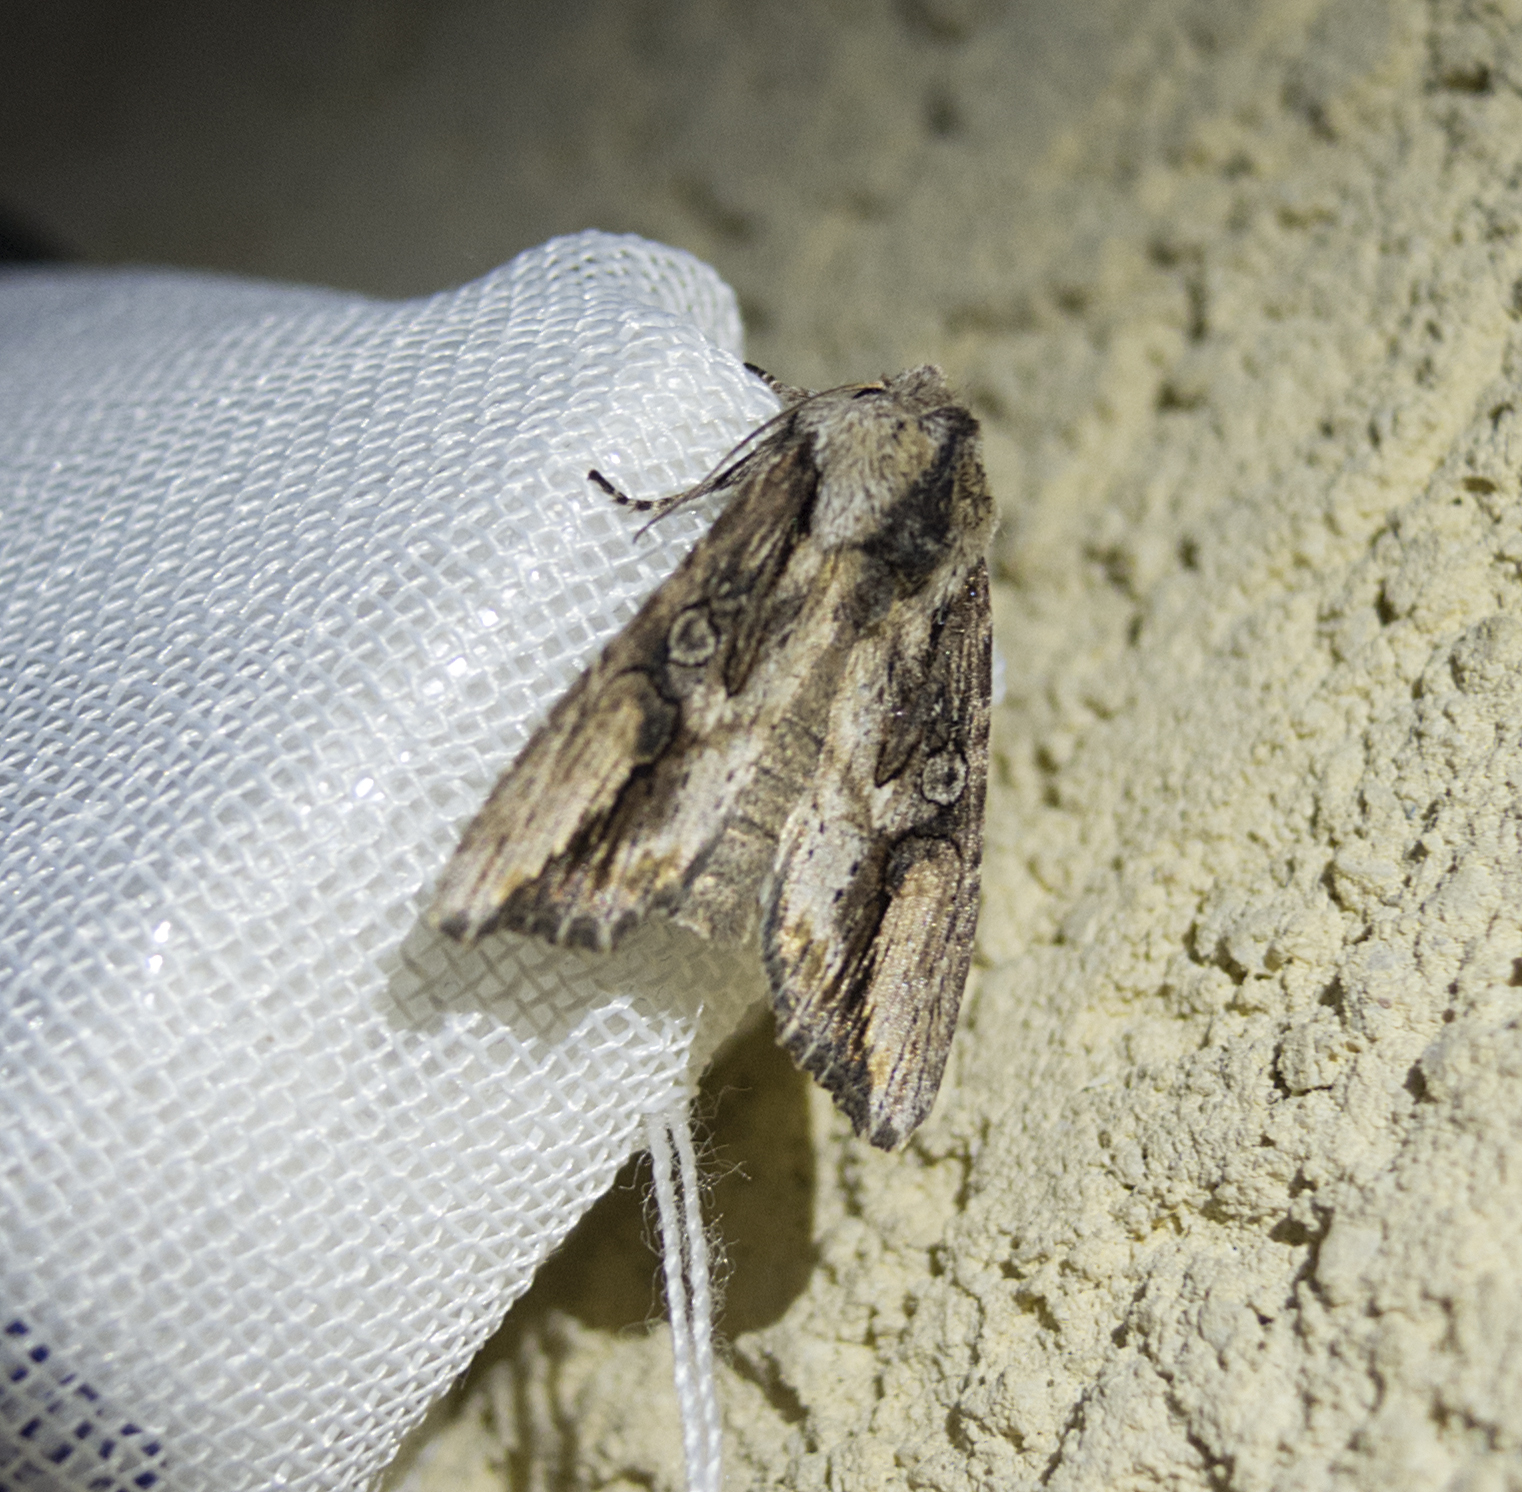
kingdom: Animalia
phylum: Arthropoda
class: Insecta
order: Lepidoptera
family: Noctuidae
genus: Egira
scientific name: Egira conspicillaris
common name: Silver cloud
